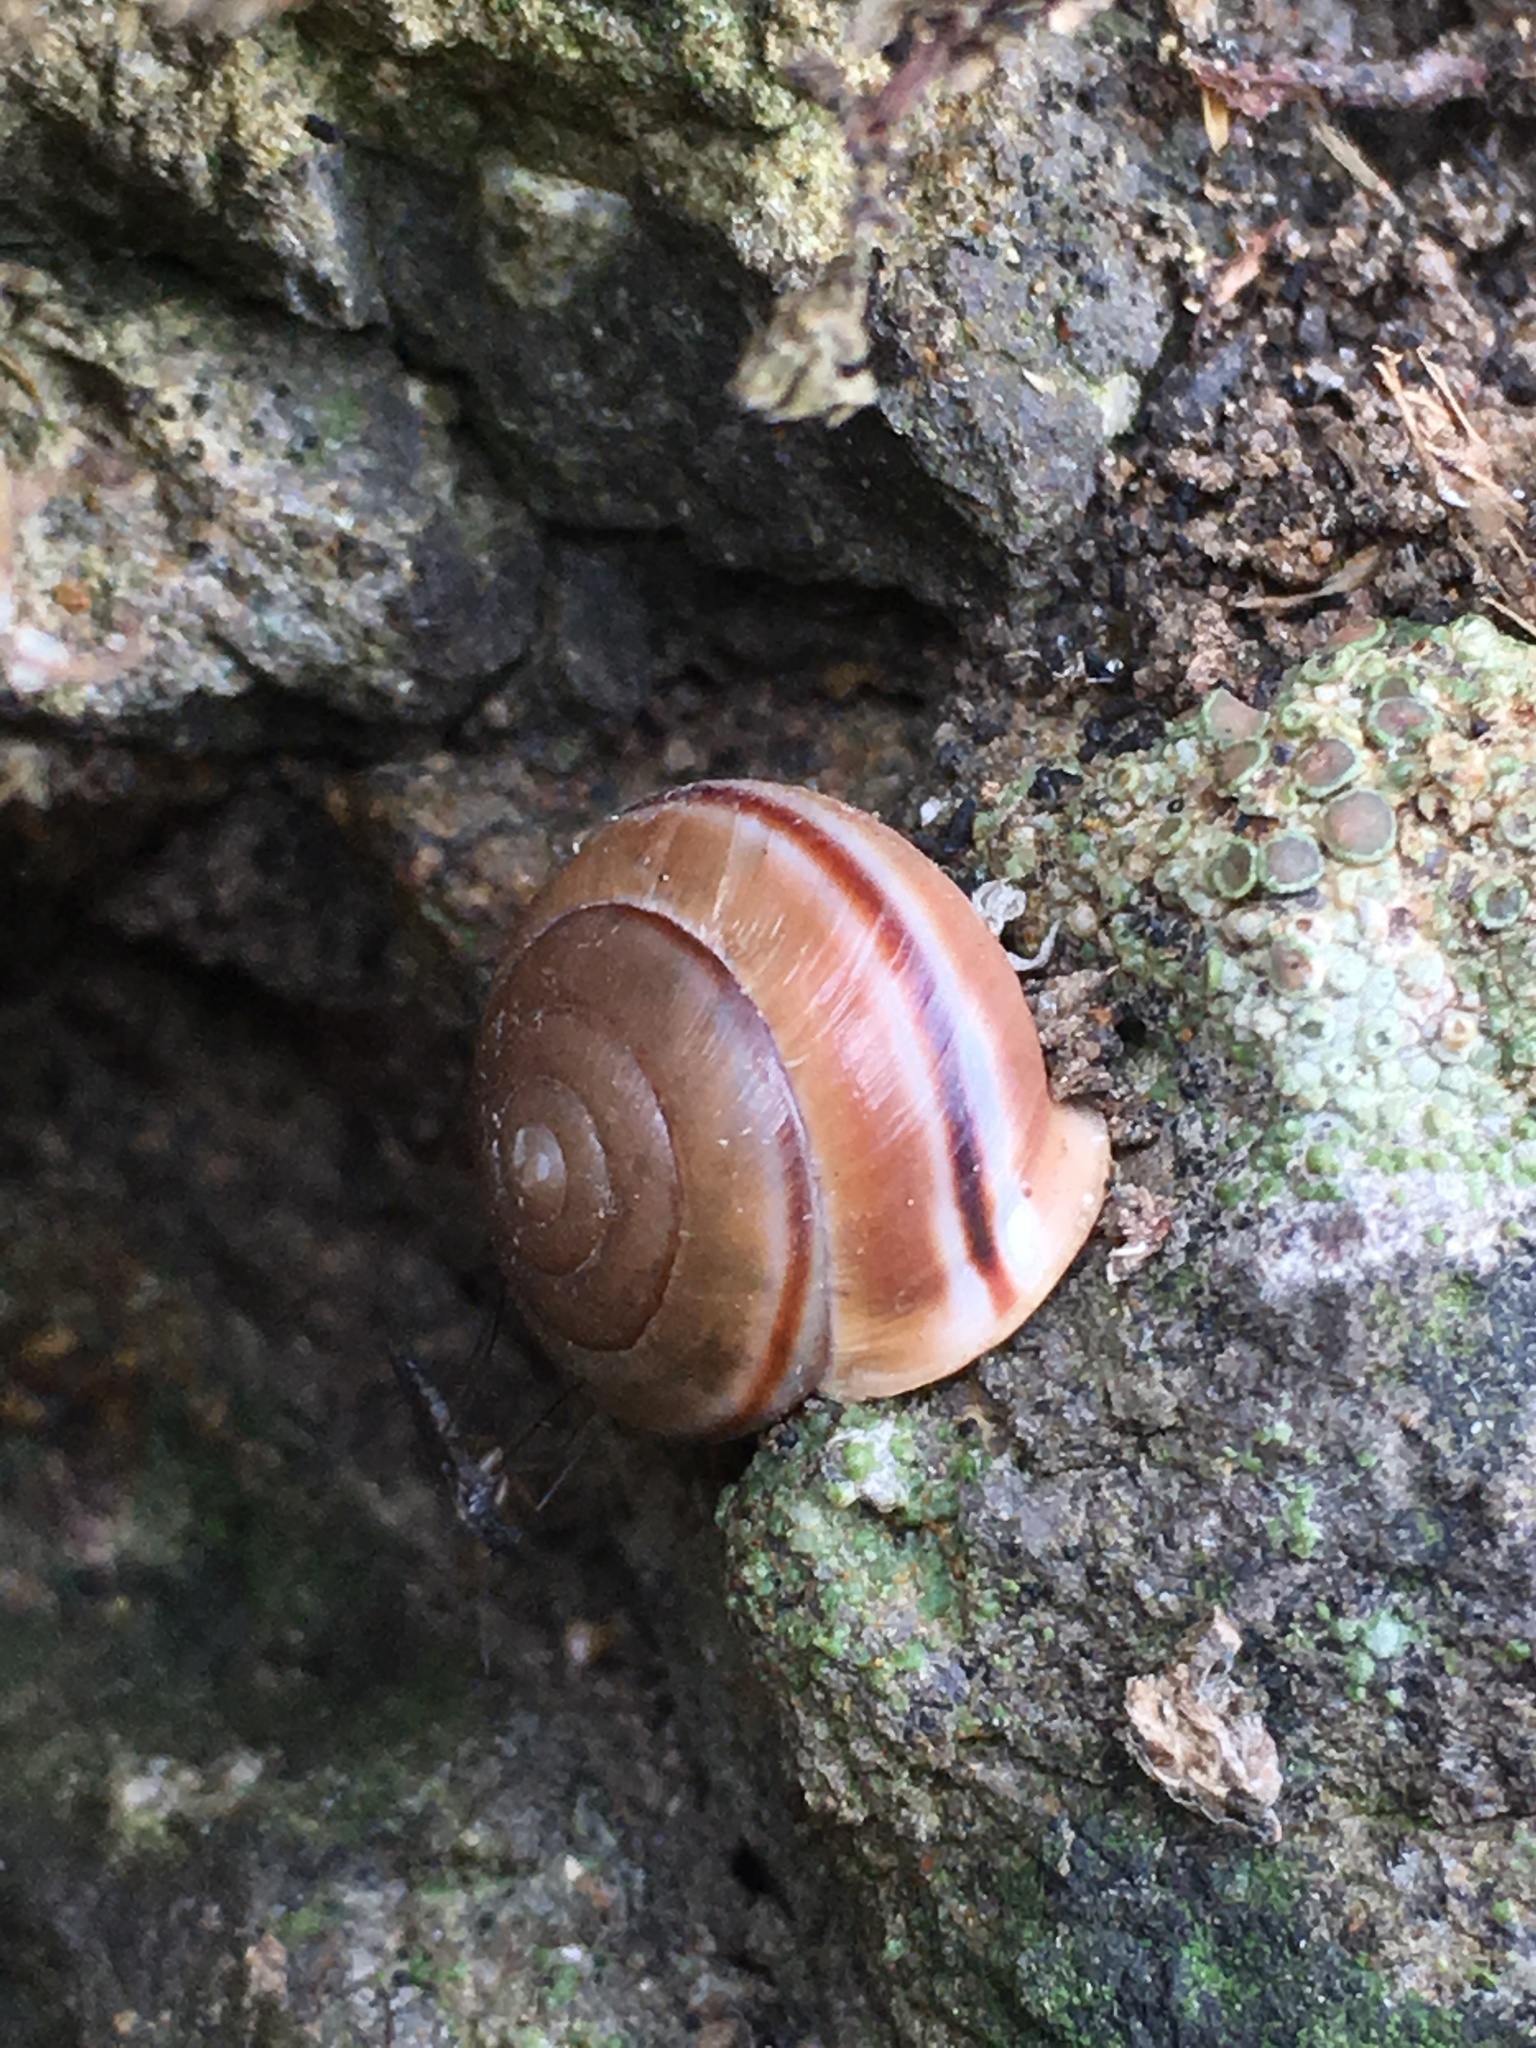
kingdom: Animalia
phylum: Mollusca
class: Gastropoda
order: Stylommatophora
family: Xanthonychidae
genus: Micrarionta
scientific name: Micrarionta facta
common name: Concentrated snail
